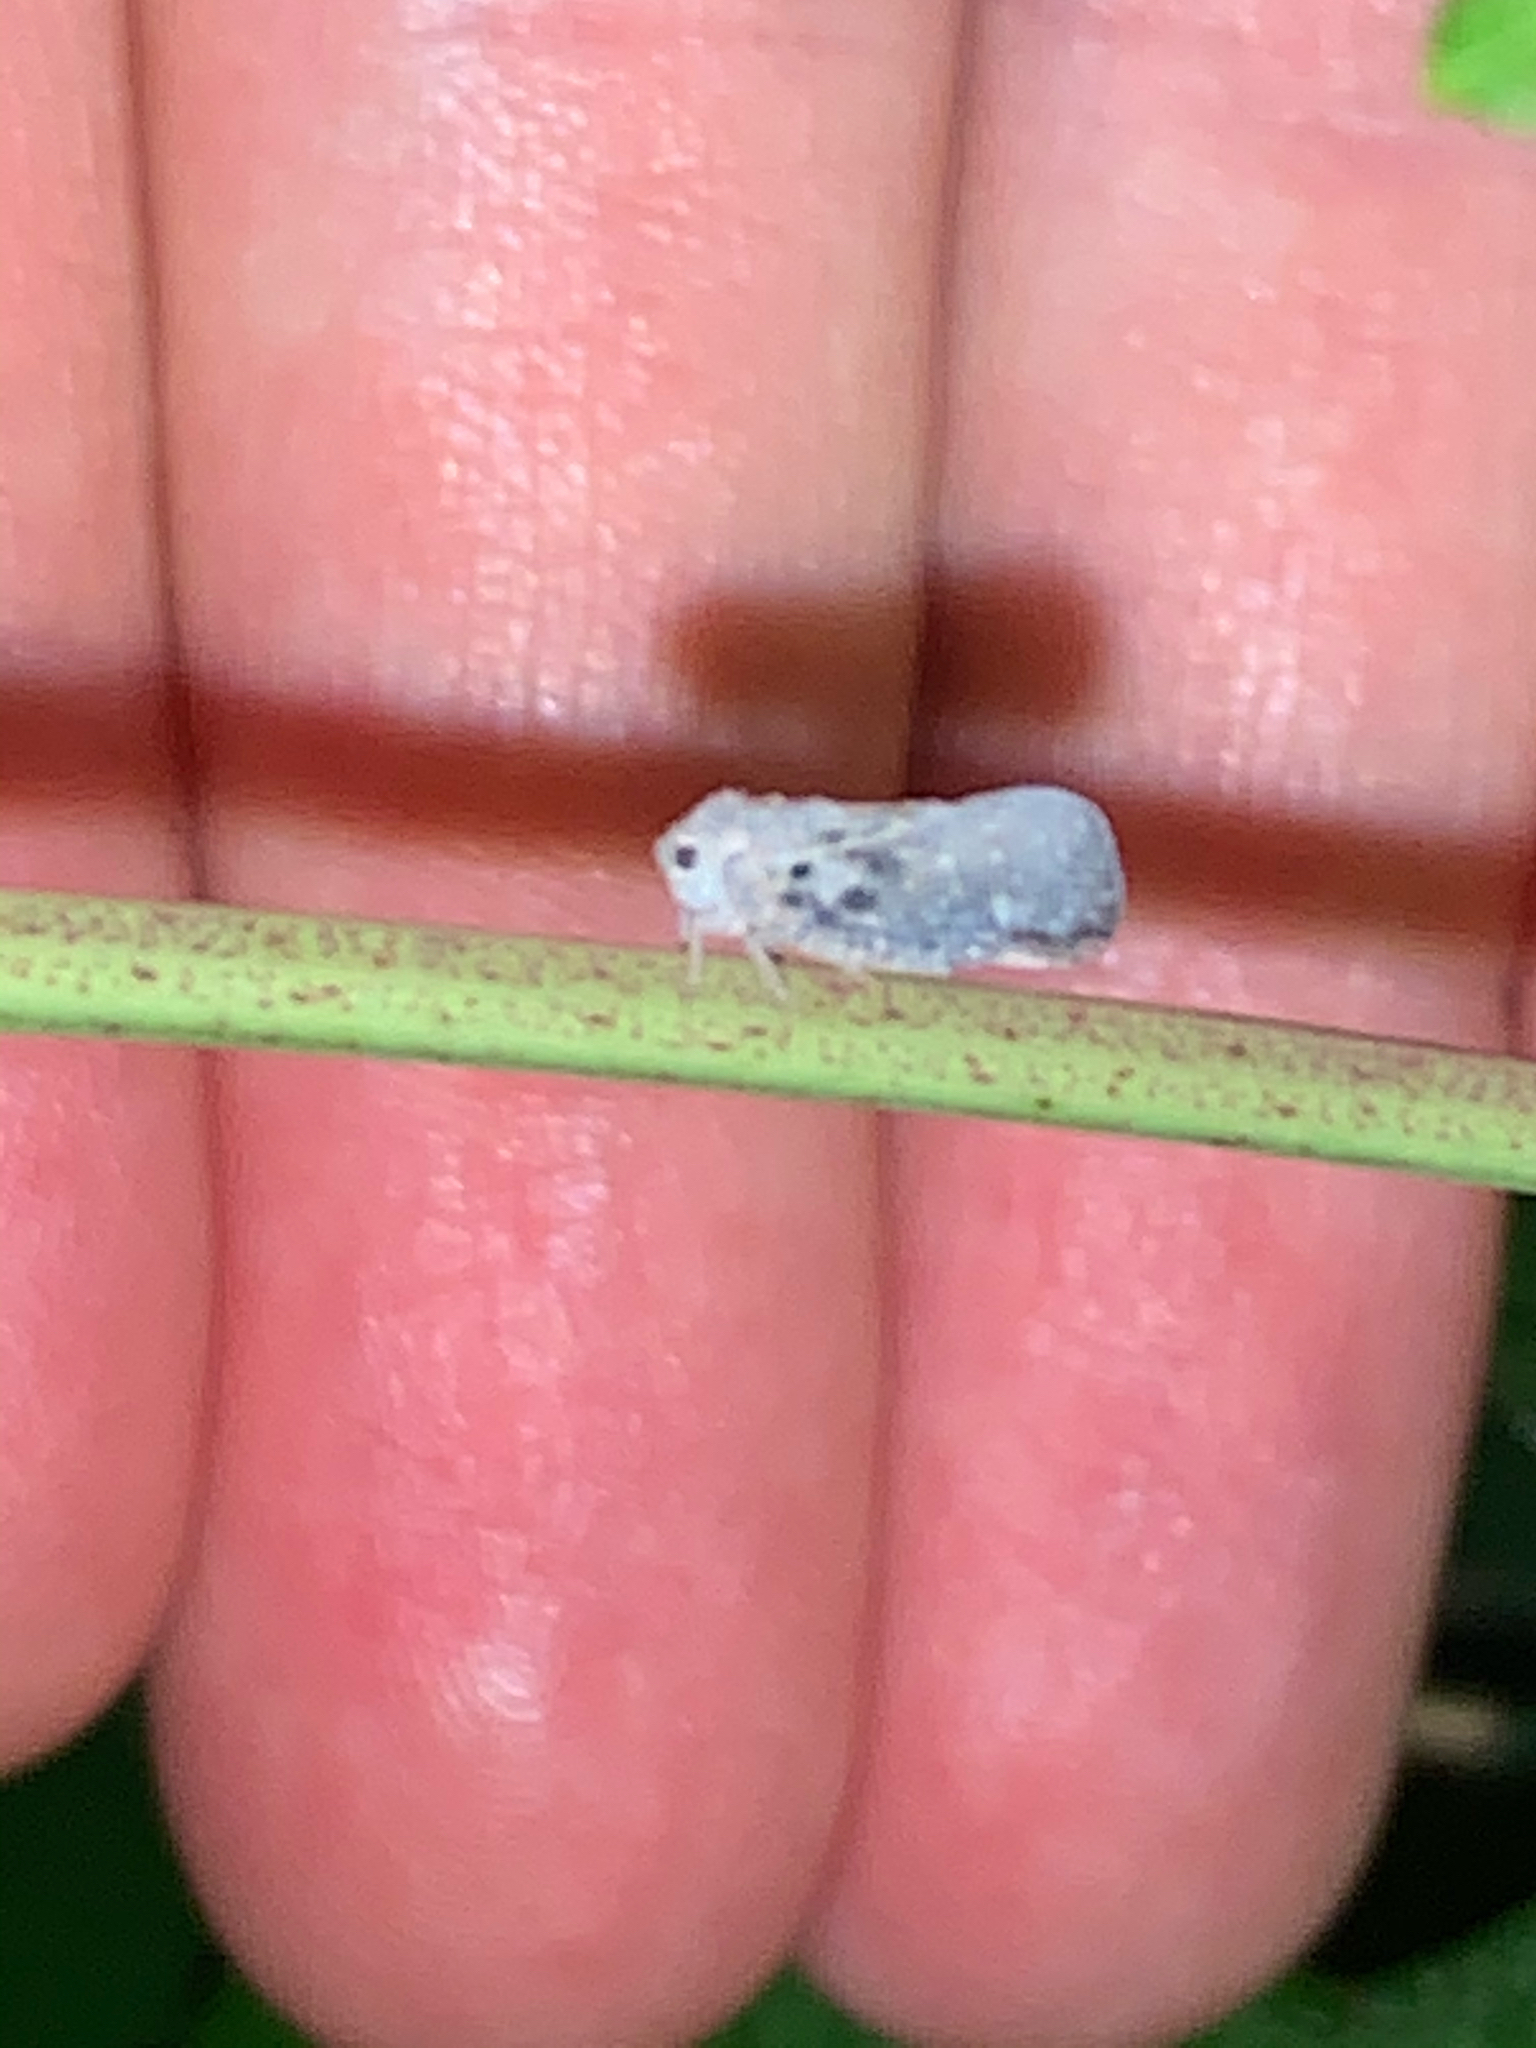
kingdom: Animalia
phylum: Arthropoda
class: Insecta
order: Hemiptera
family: Flatidae
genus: Metcalfa
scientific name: Metcalfa pruinosa
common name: Citrus flatid planthopper
